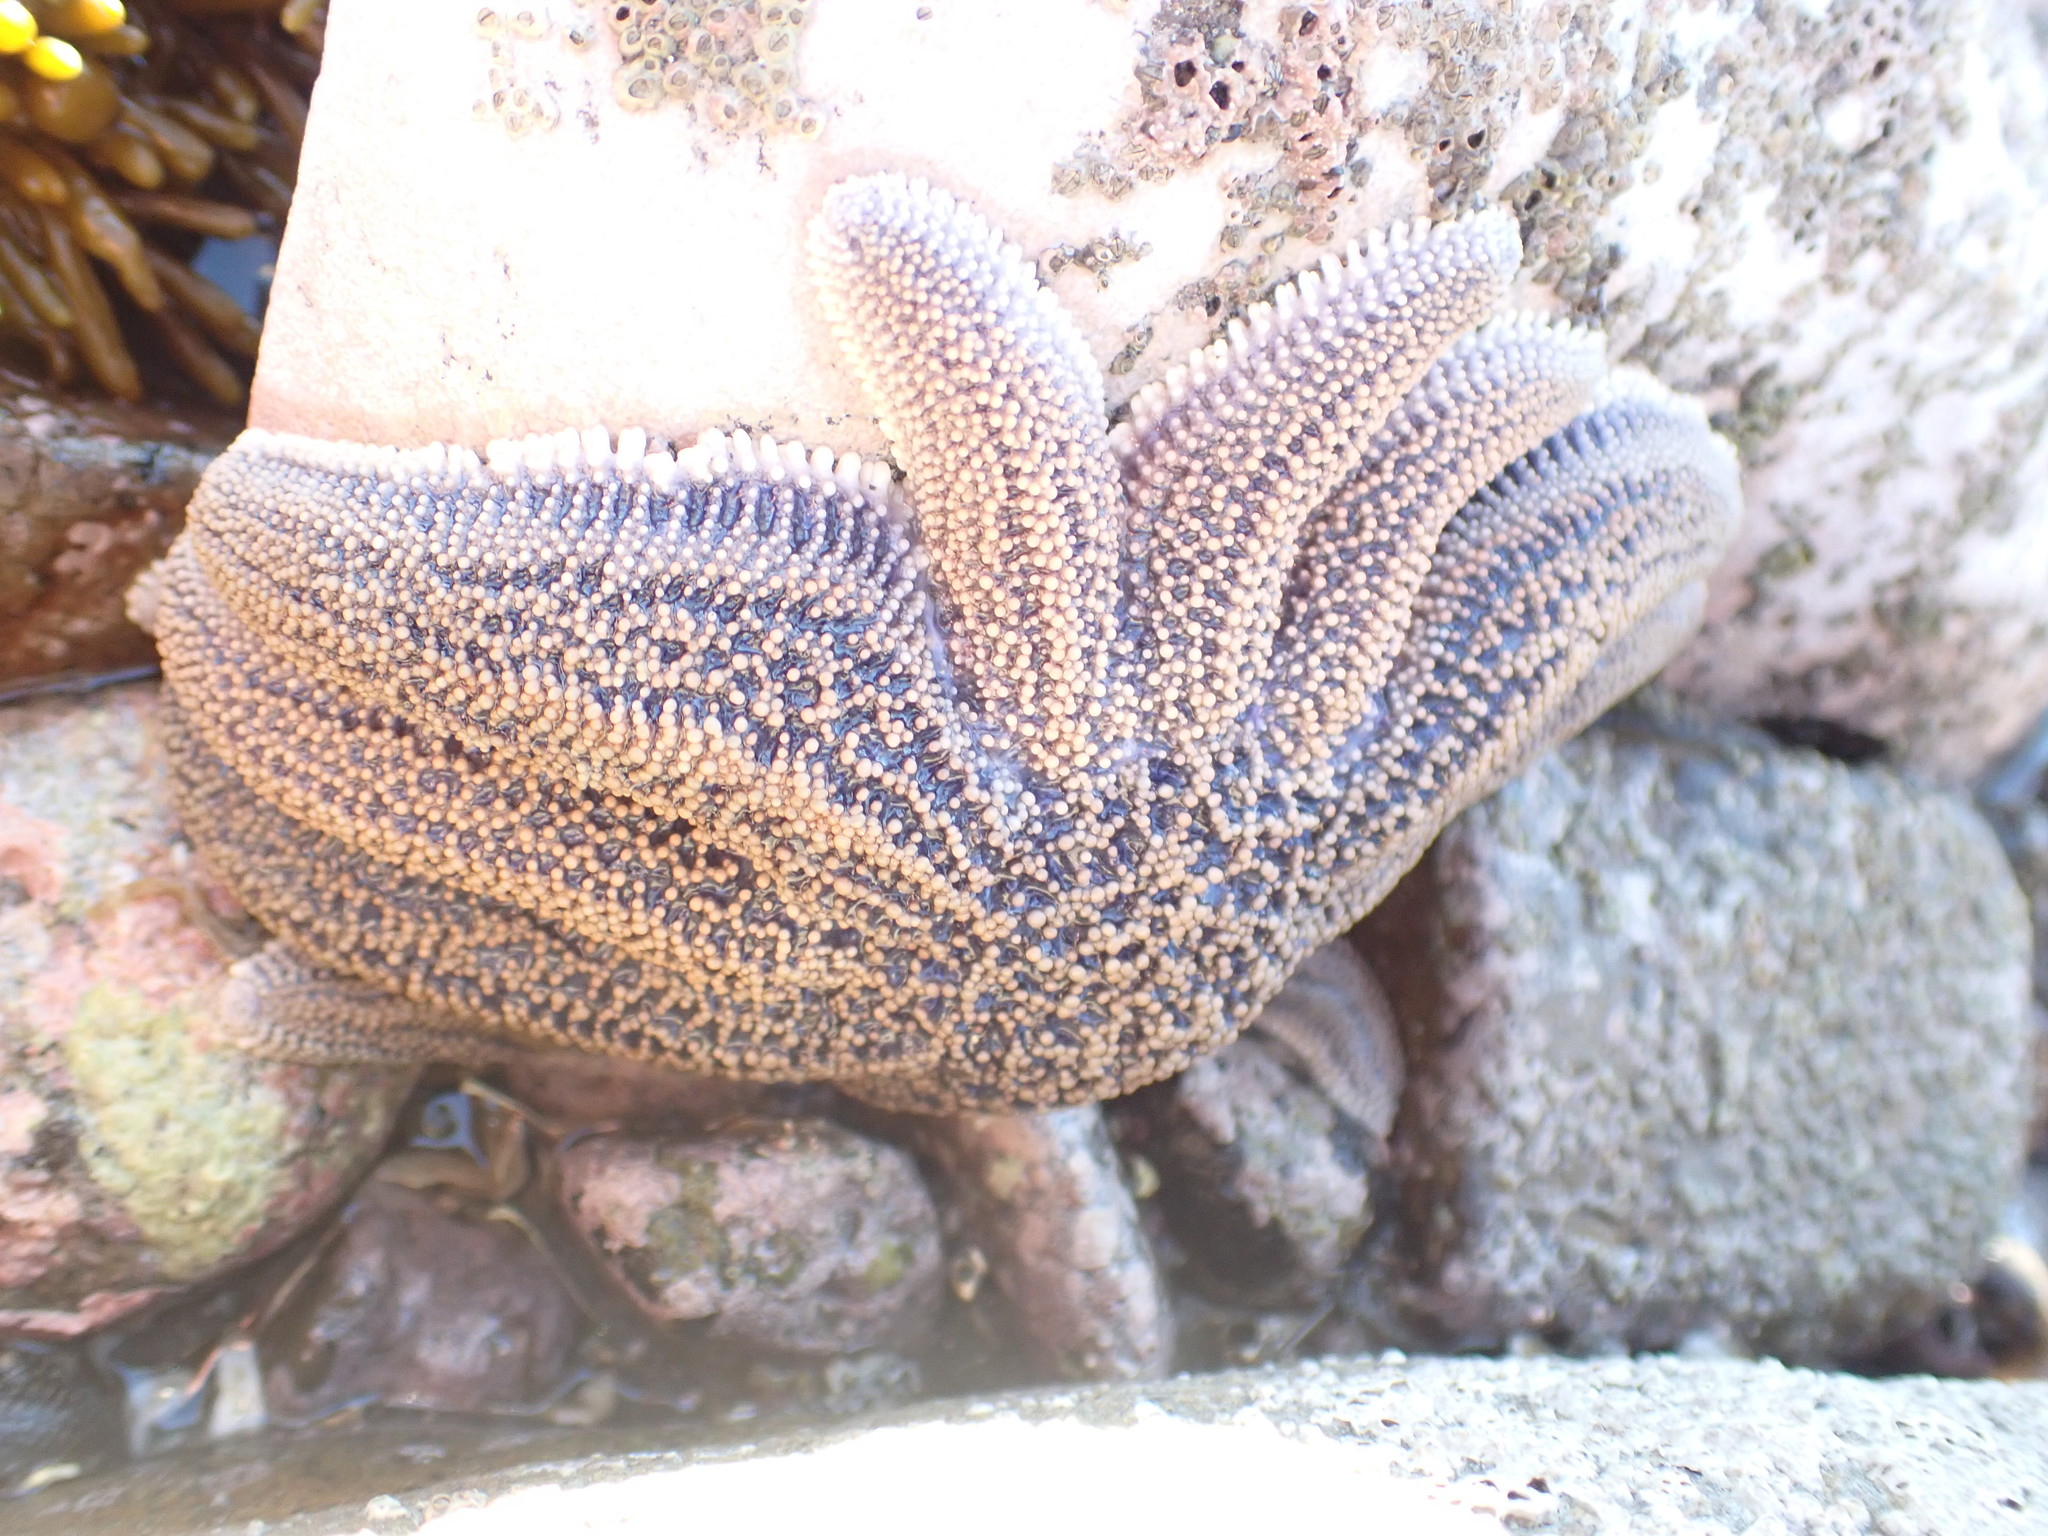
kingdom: Animalia
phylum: Echinodermata
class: Asteroidea
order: Forcipulatida
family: Stichasteridae
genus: Stichaster
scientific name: Stichaster australis
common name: Reef starfish
